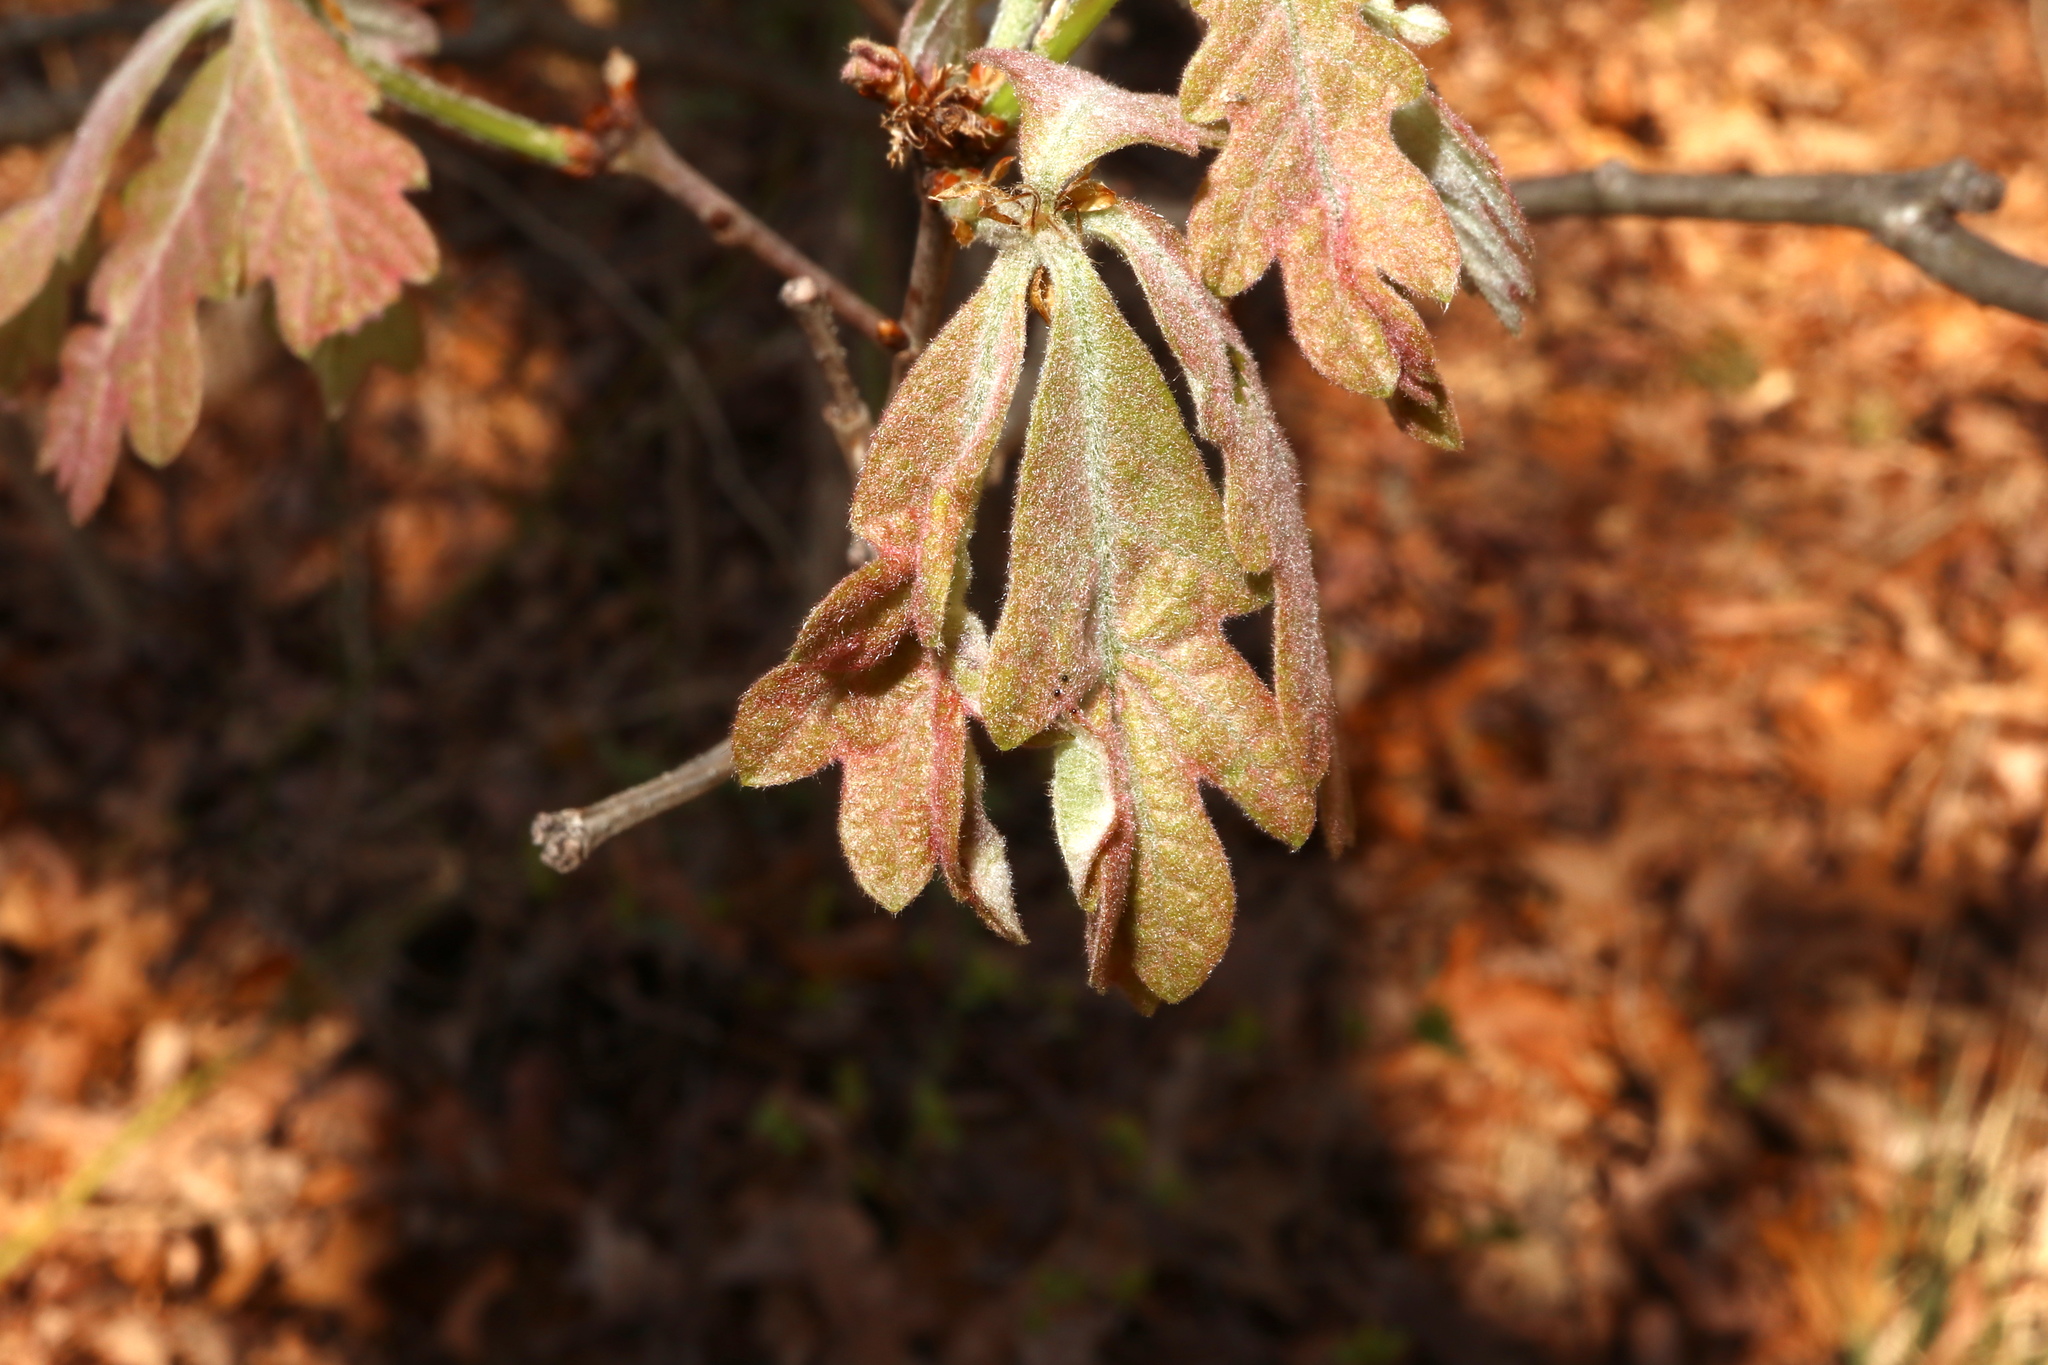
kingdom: Animalia
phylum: Arthropoda
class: Insecta
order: Diptera
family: Cecidomyiidae
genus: Macrodiplosis
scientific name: Macrodiplosis niveipila
